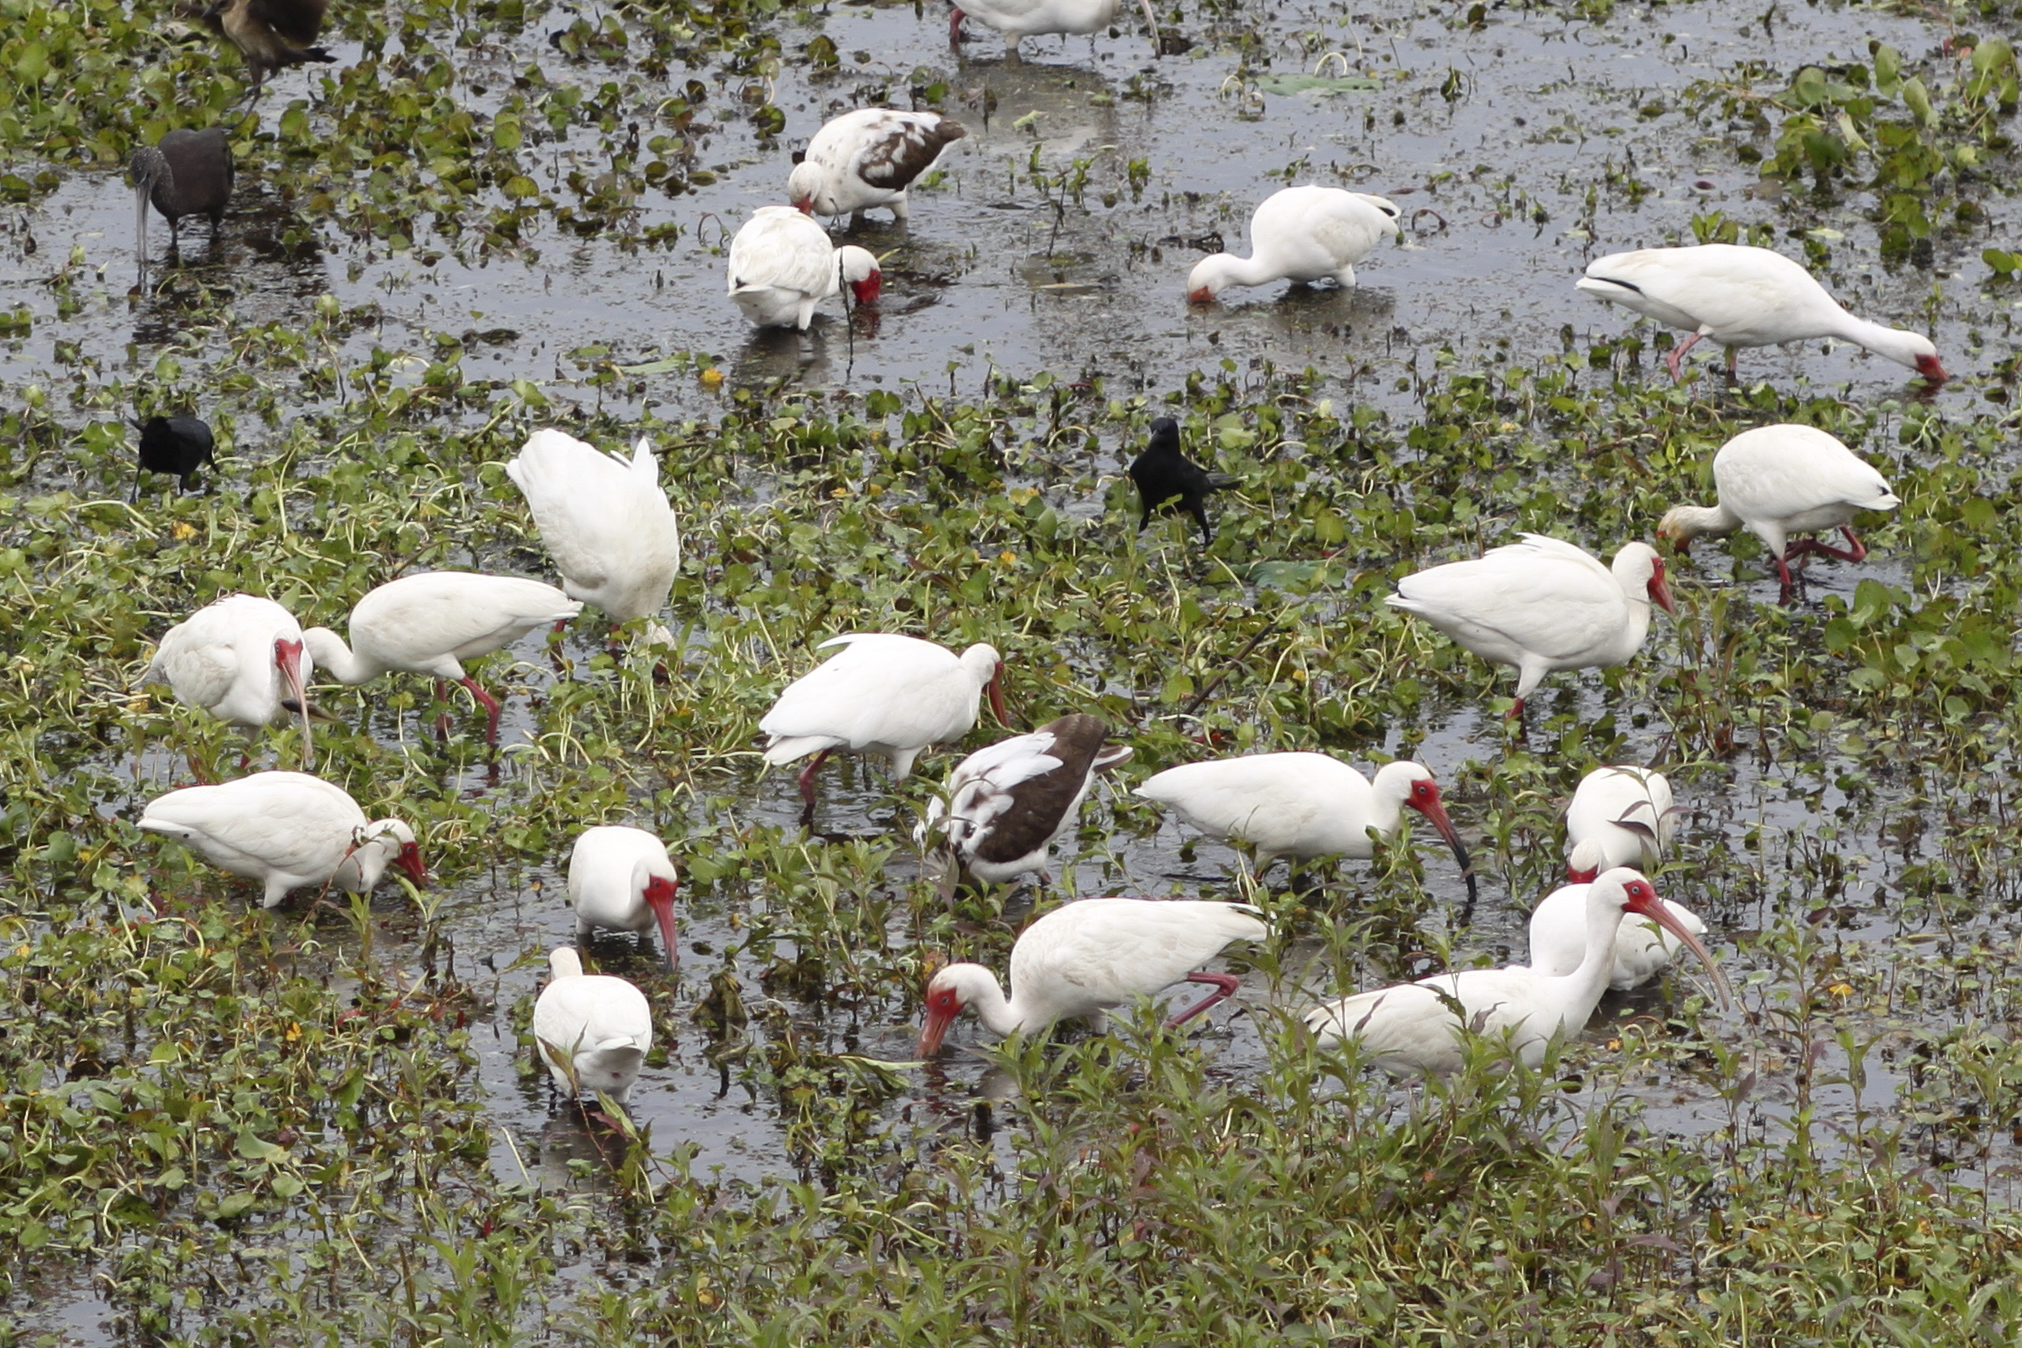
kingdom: Animalia
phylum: Chordata
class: Aves
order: Pelecaniformes
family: Threskiornithidae
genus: Eudocimus
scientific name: Eudocimus albus
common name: White ibis
